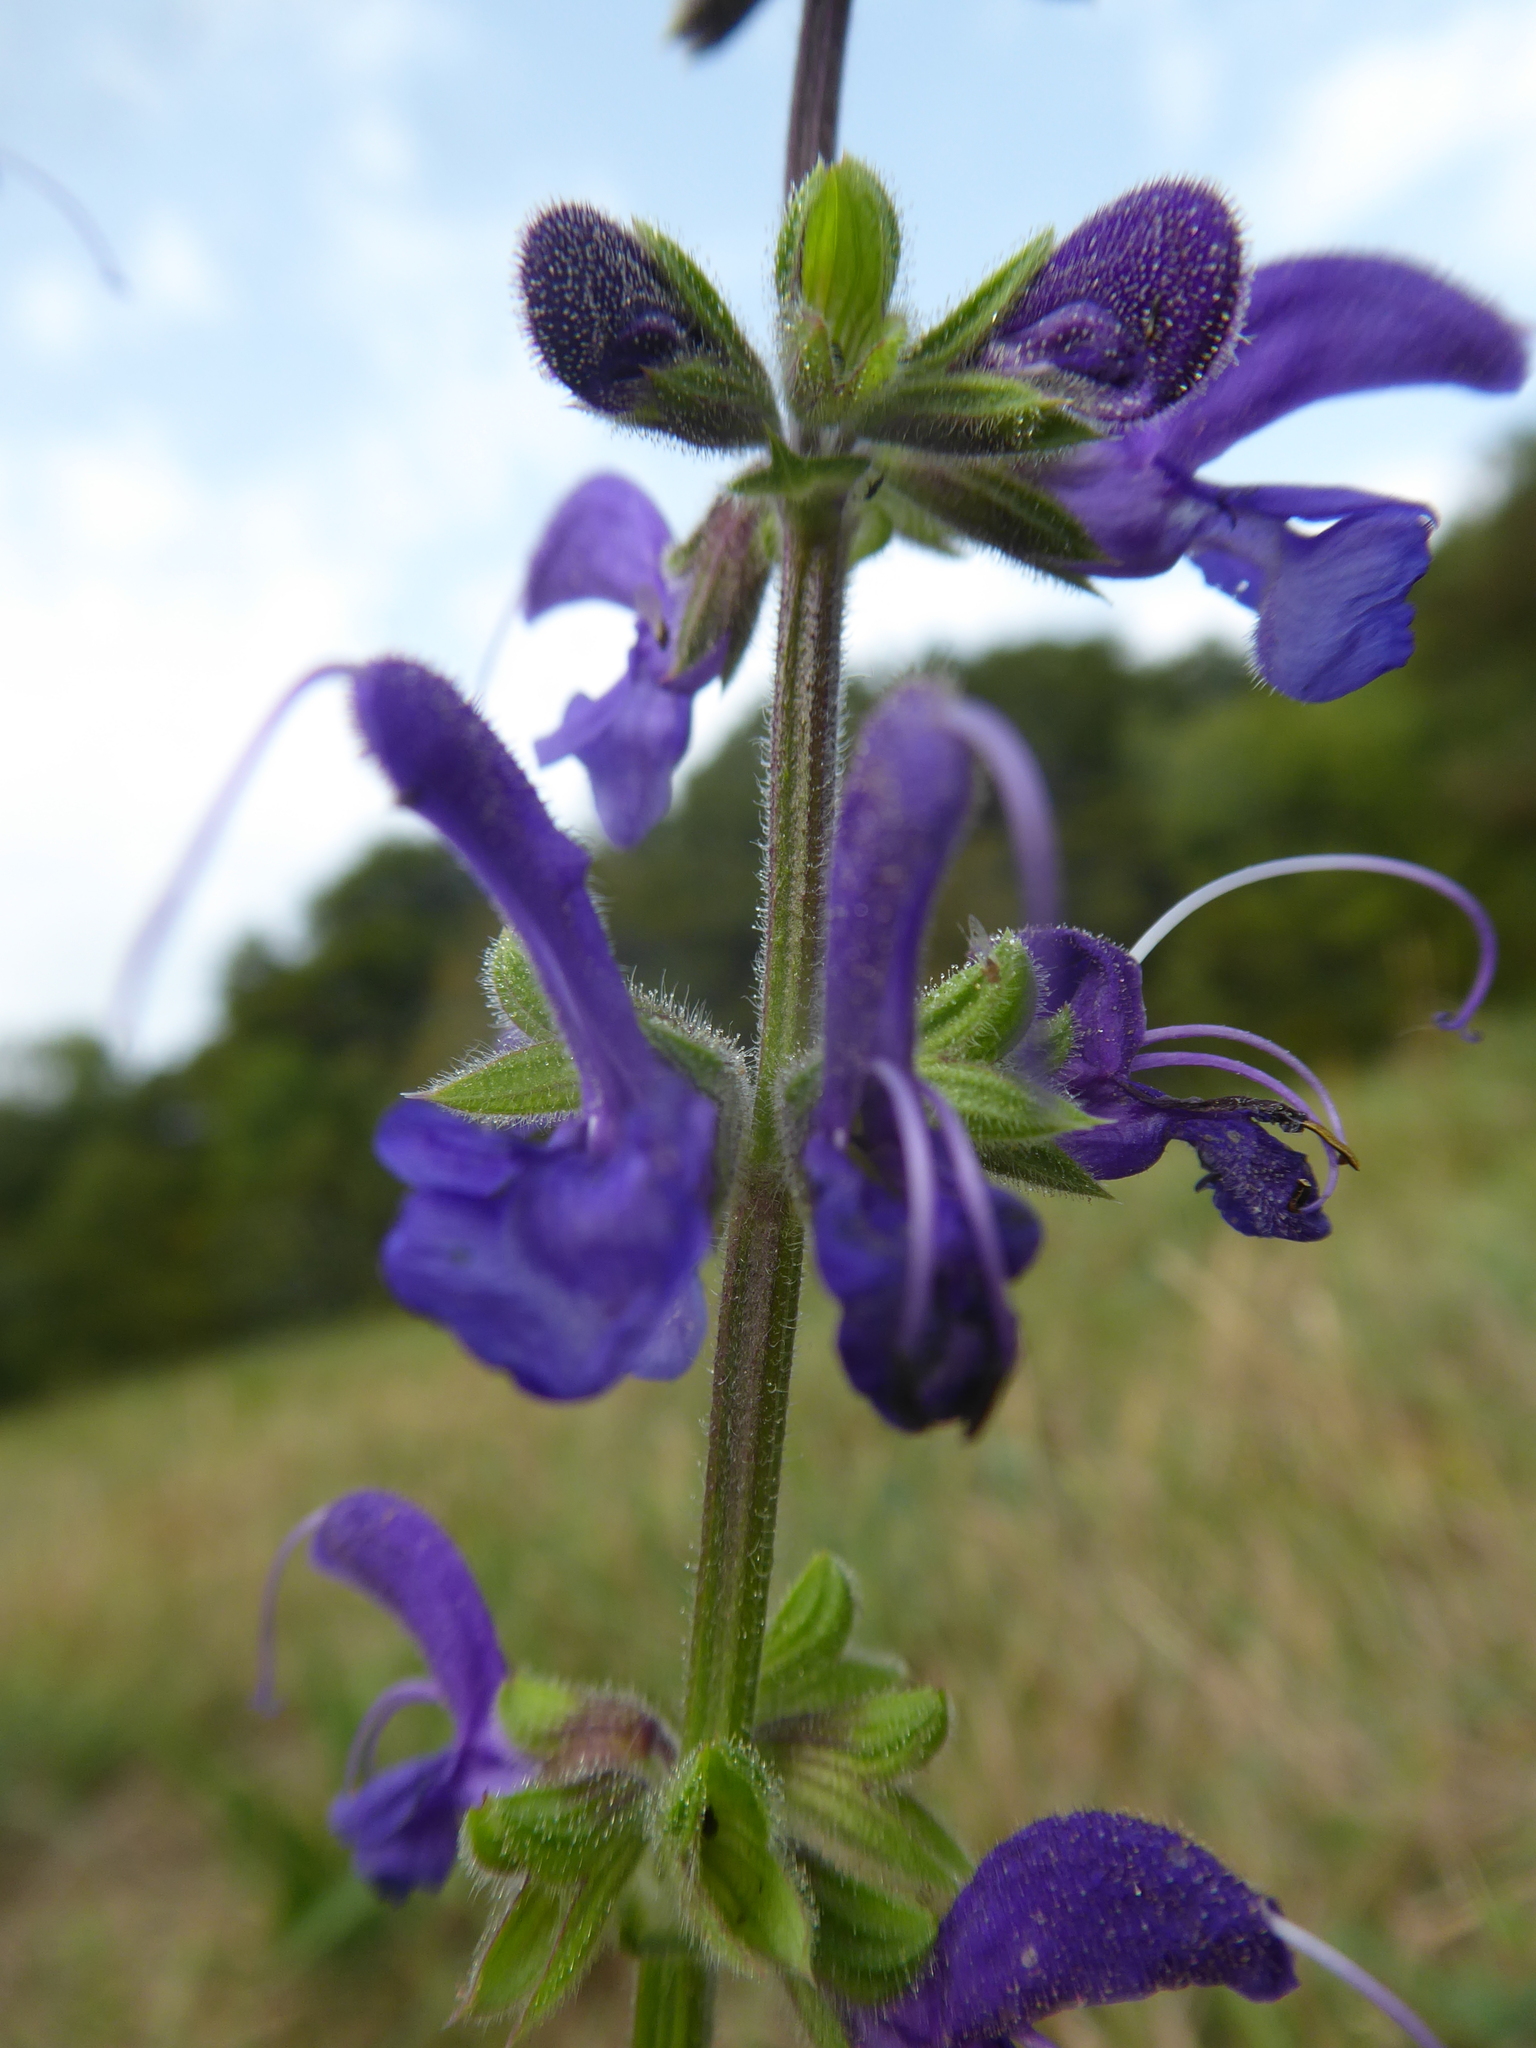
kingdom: Plantae
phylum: Tracheophyta
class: Magnoliopsida
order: Lamiales
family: Lamiaceae
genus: Salvia
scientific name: Salvia pratensis
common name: Meadow sage
